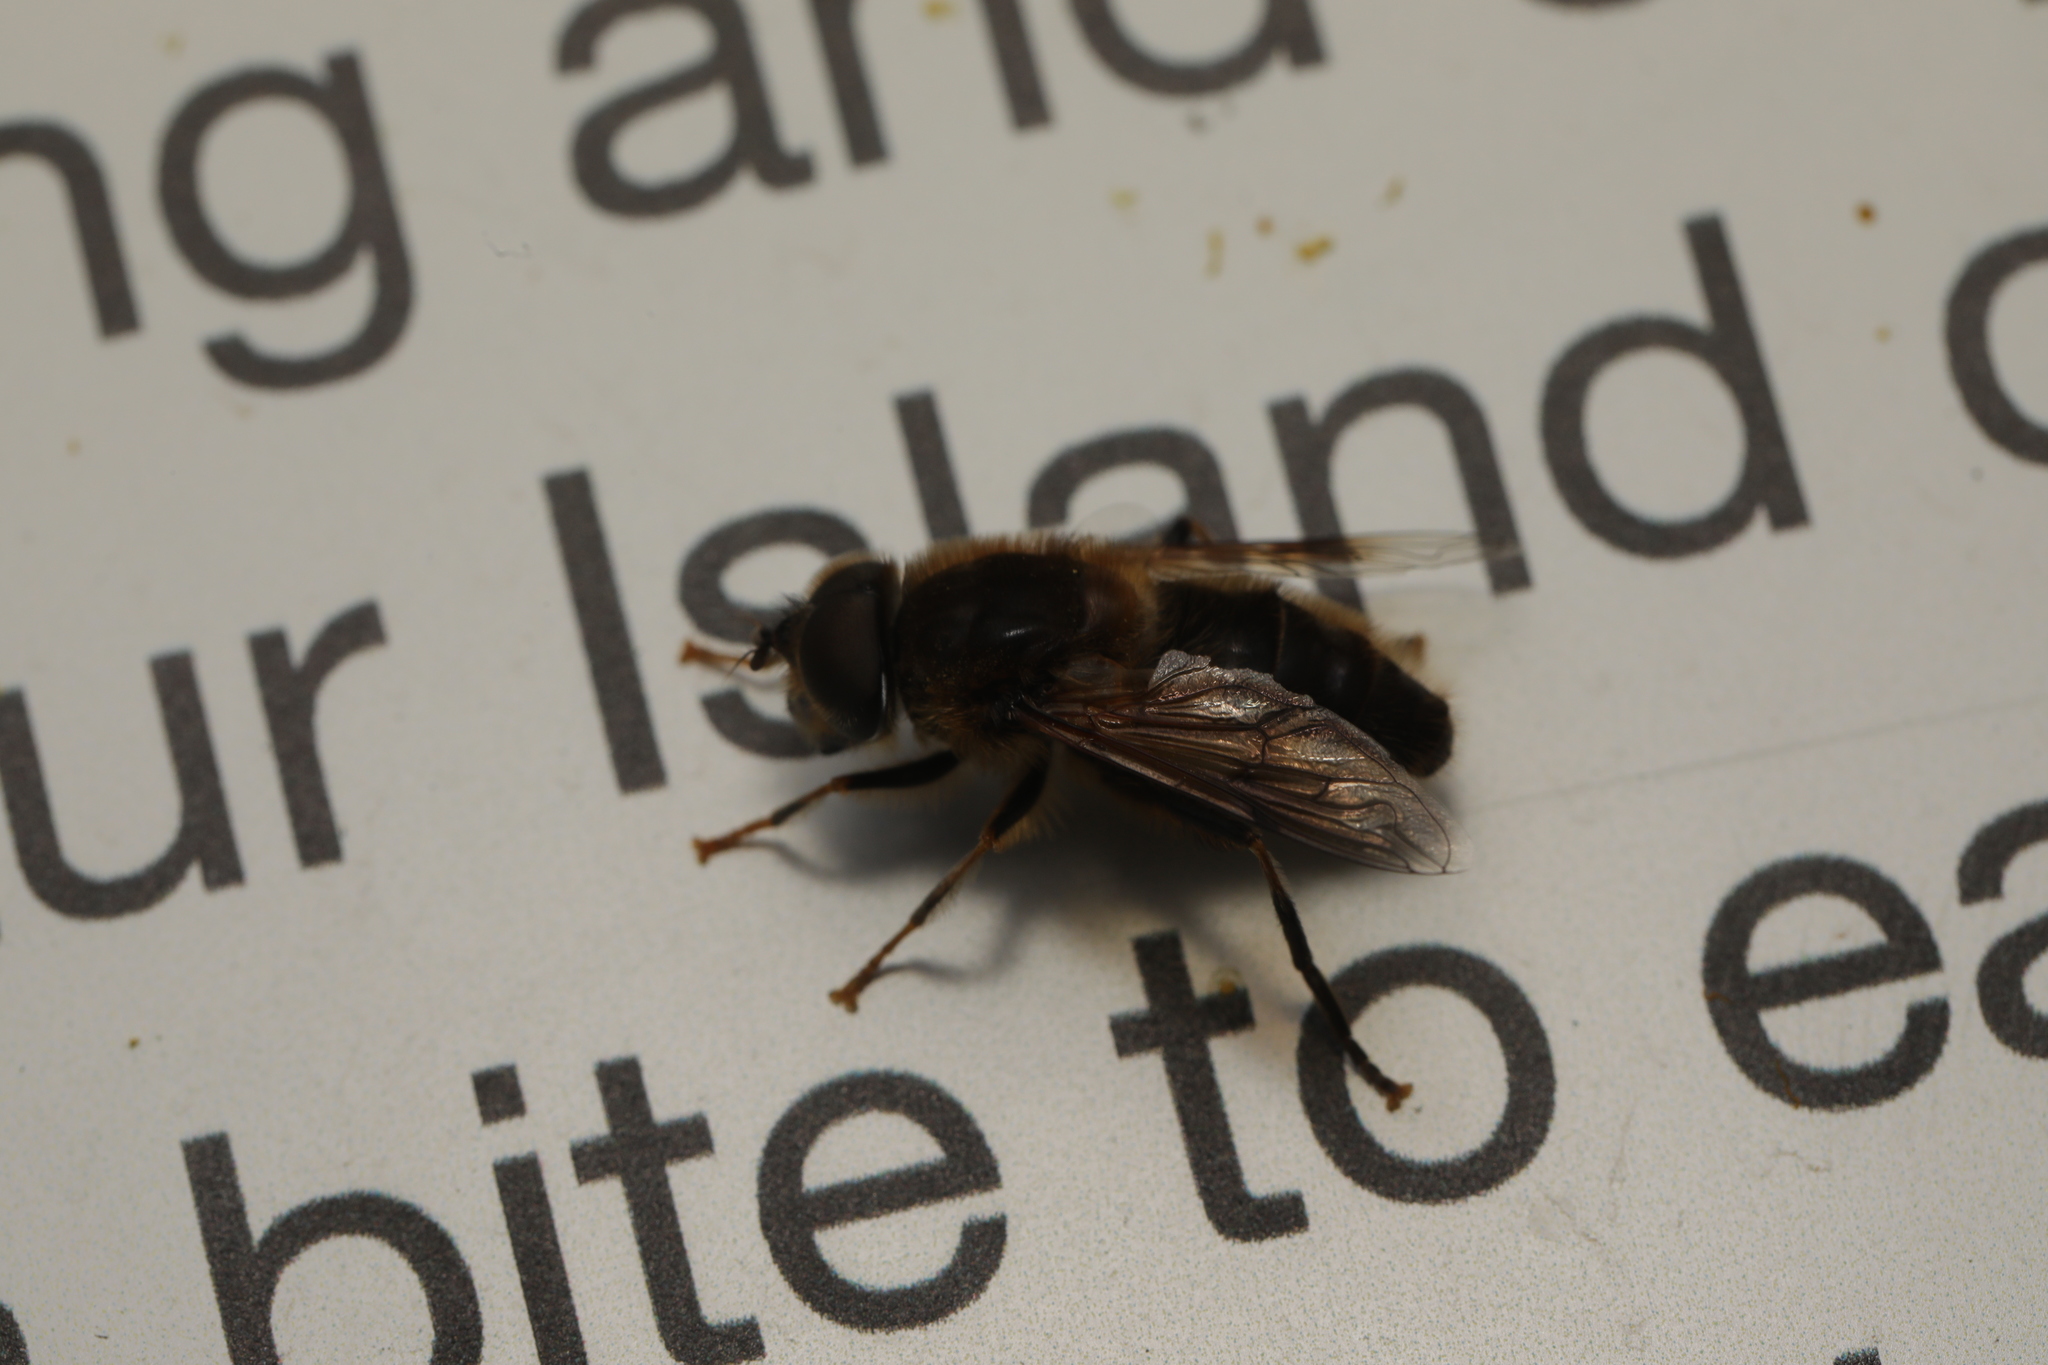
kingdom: Animalia
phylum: Arthropoda
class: Insecta
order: Diptera
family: Syrphidae
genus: Eristalis
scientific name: Eristalis pertinax
